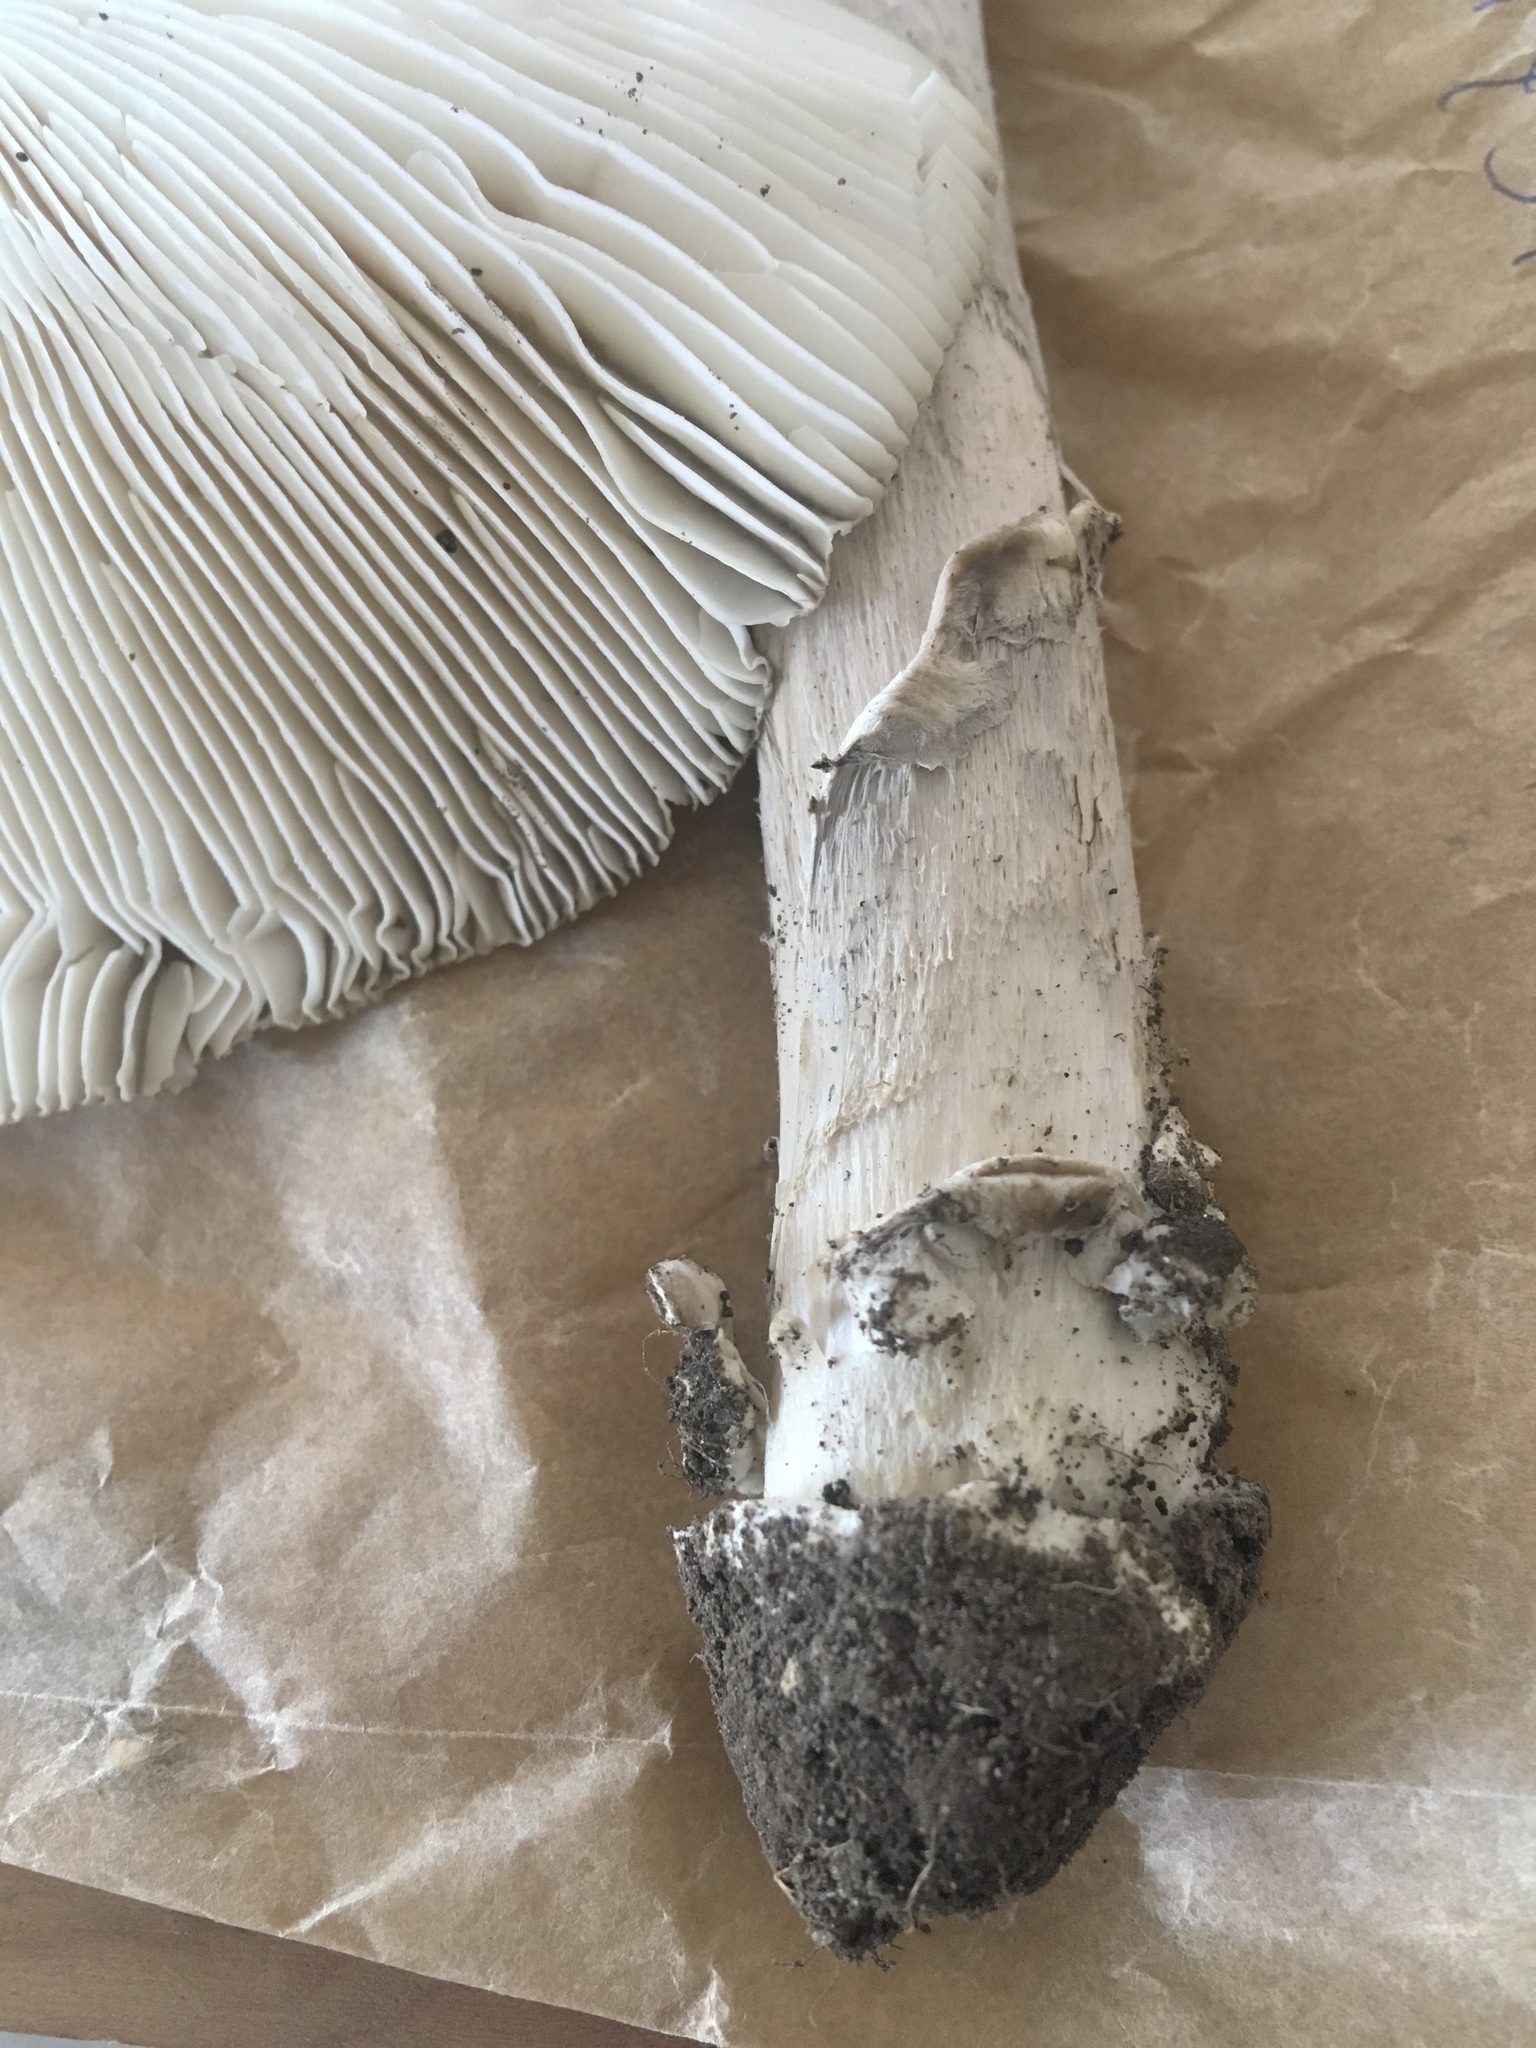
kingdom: Fungi
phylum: Basidiomycota
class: Agaricomycetes
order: Agaricales
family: Amanitaceae
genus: Amanita
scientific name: Amanita spreta
